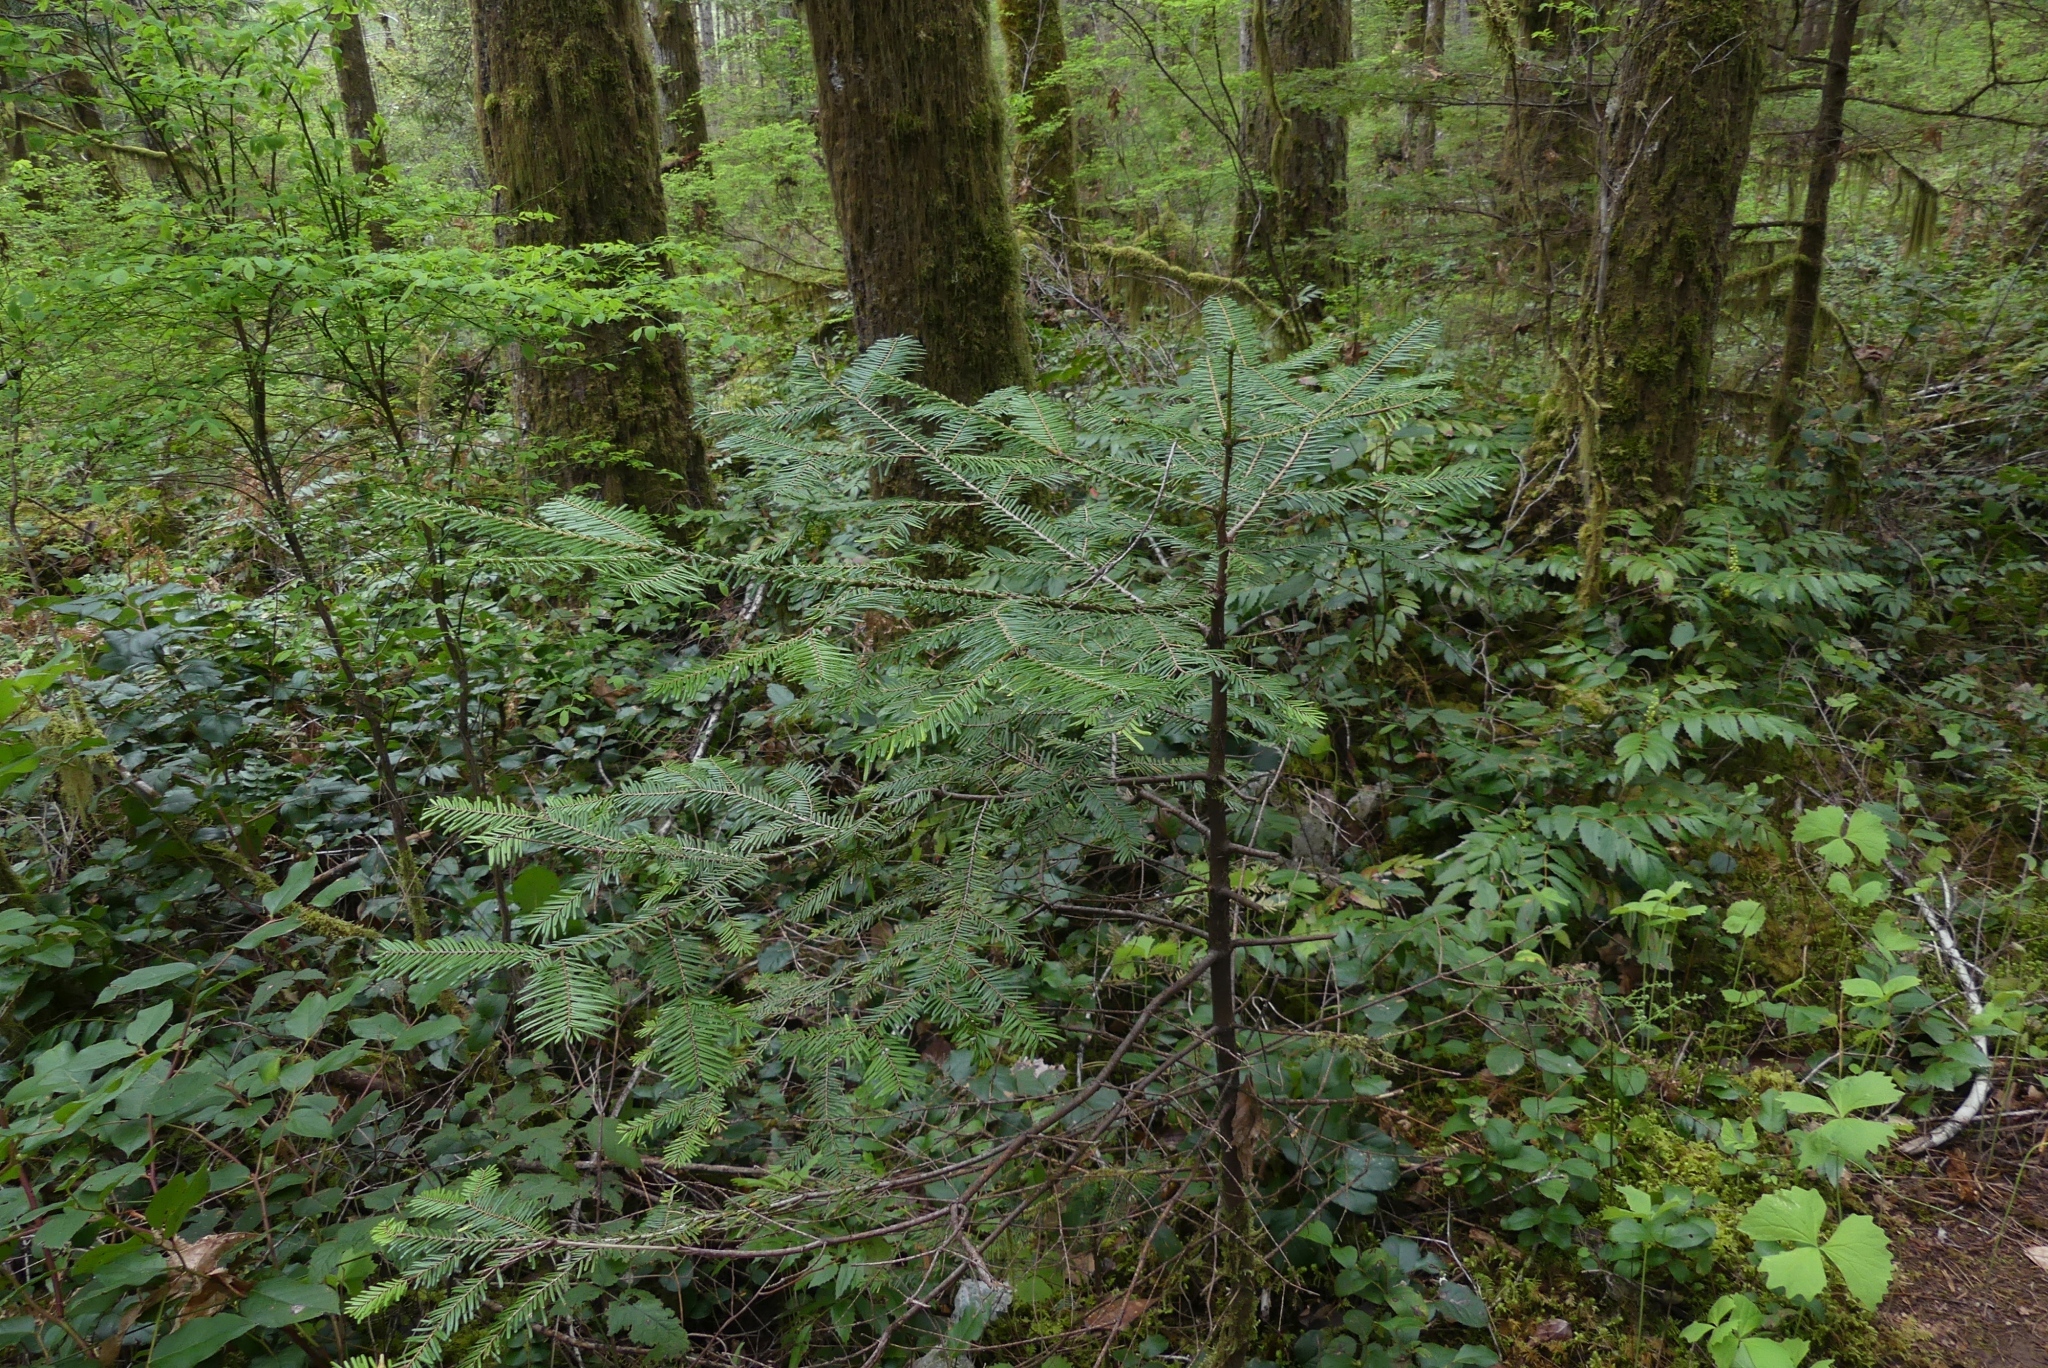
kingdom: Plantae
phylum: Tracheophyta
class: Pinopsida
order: Pinales
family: Pinaceae
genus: Abies
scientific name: Abies grandis
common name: Giant fir
